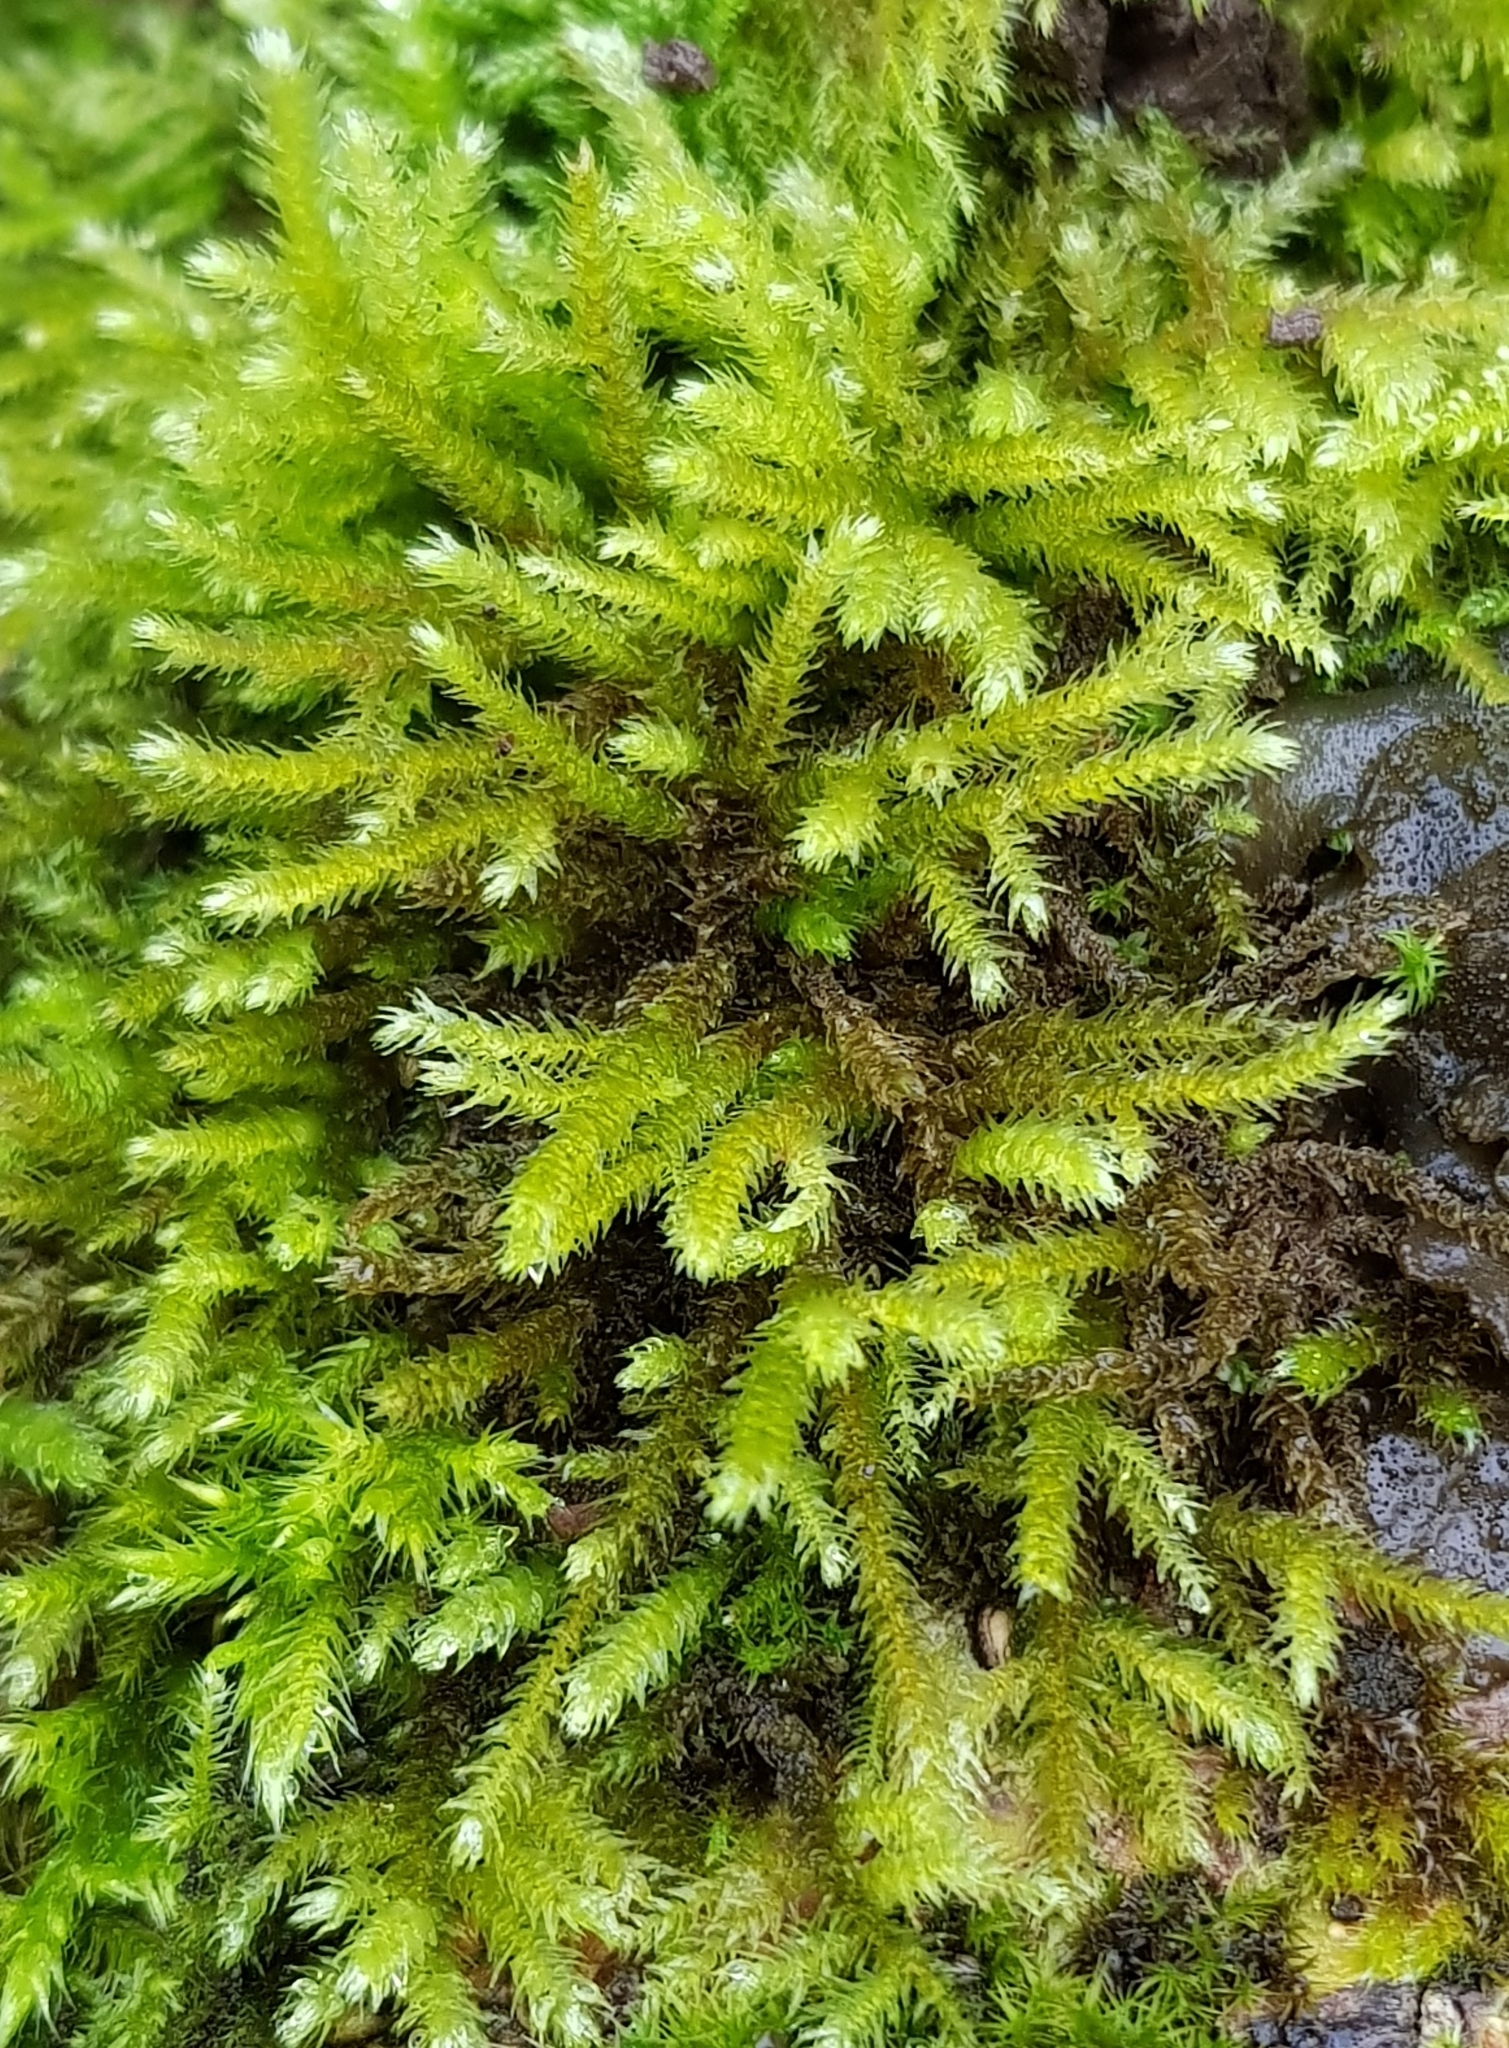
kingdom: Plantae
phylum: Bryophyta
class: Bryopsida
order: Hypnales
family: Brachytheciaceae
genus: Eurhynchium
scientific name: Eurhynchium striatum
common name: Common striated feather-moss
